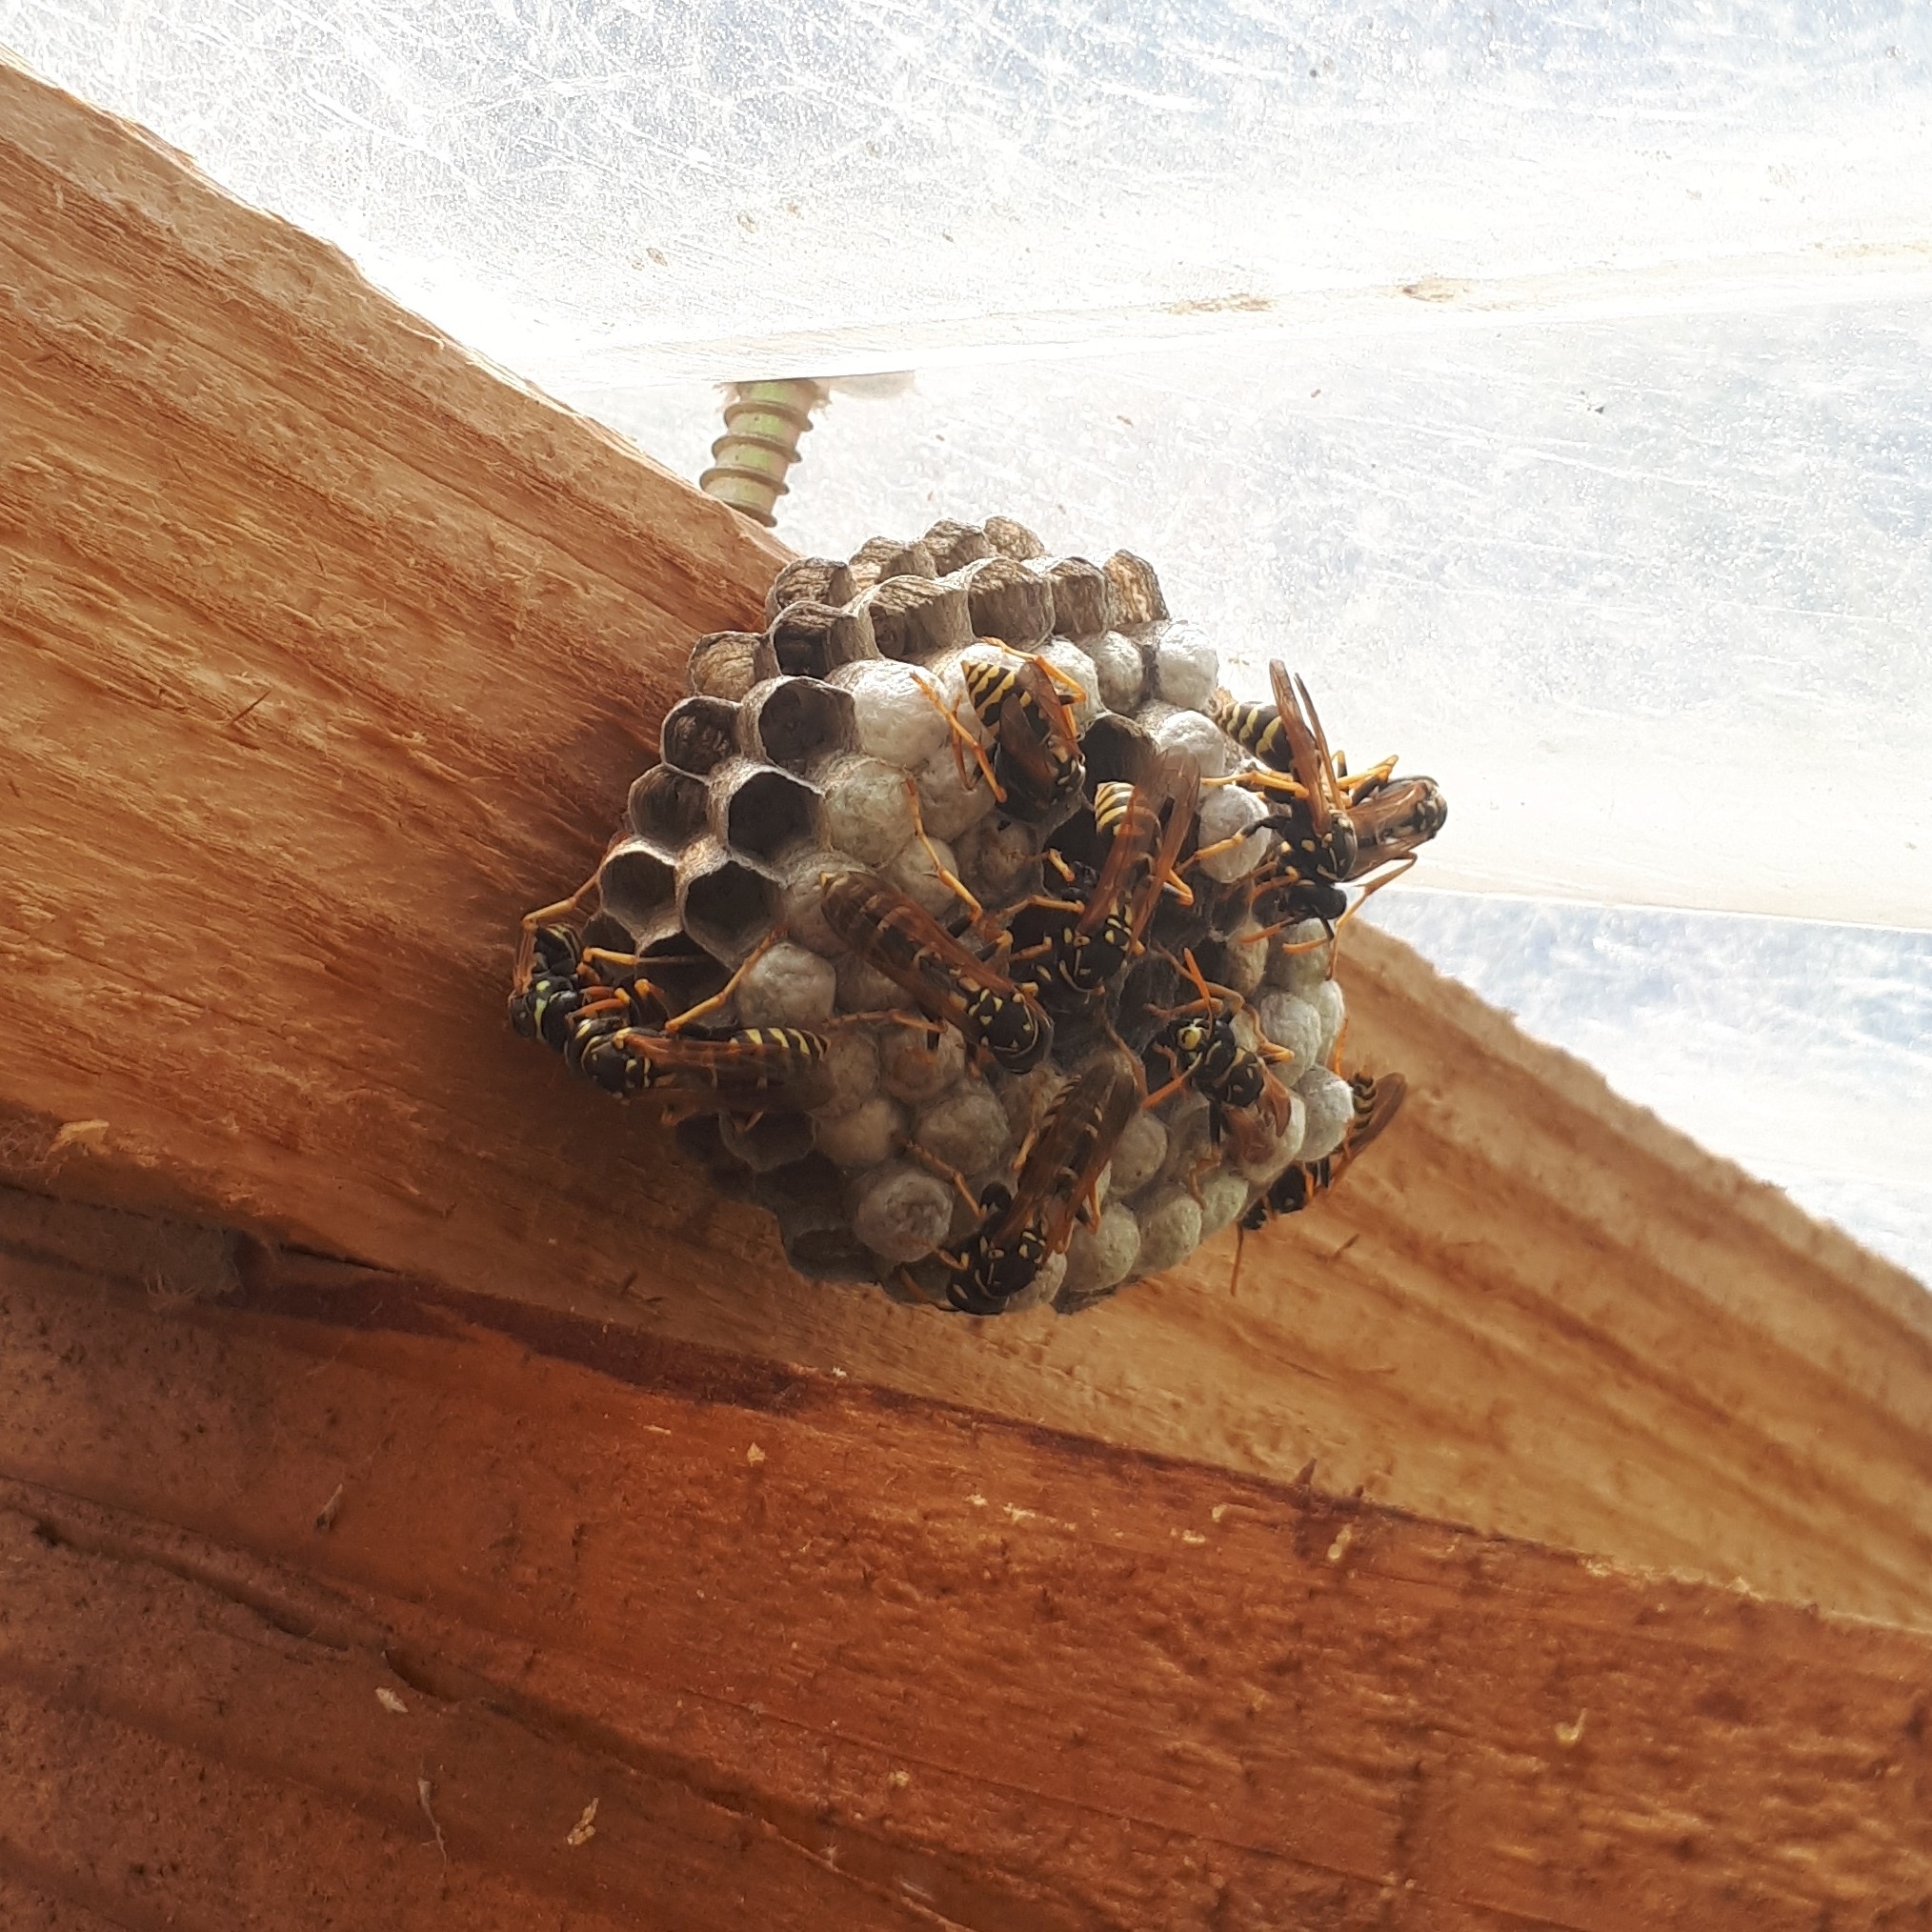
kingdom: Animalia
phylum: Arthropoda
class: Insecta
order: Hymenoptera
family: Eumenidae
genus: Polistes
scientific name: Polistes dominula
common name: Paper wasp
